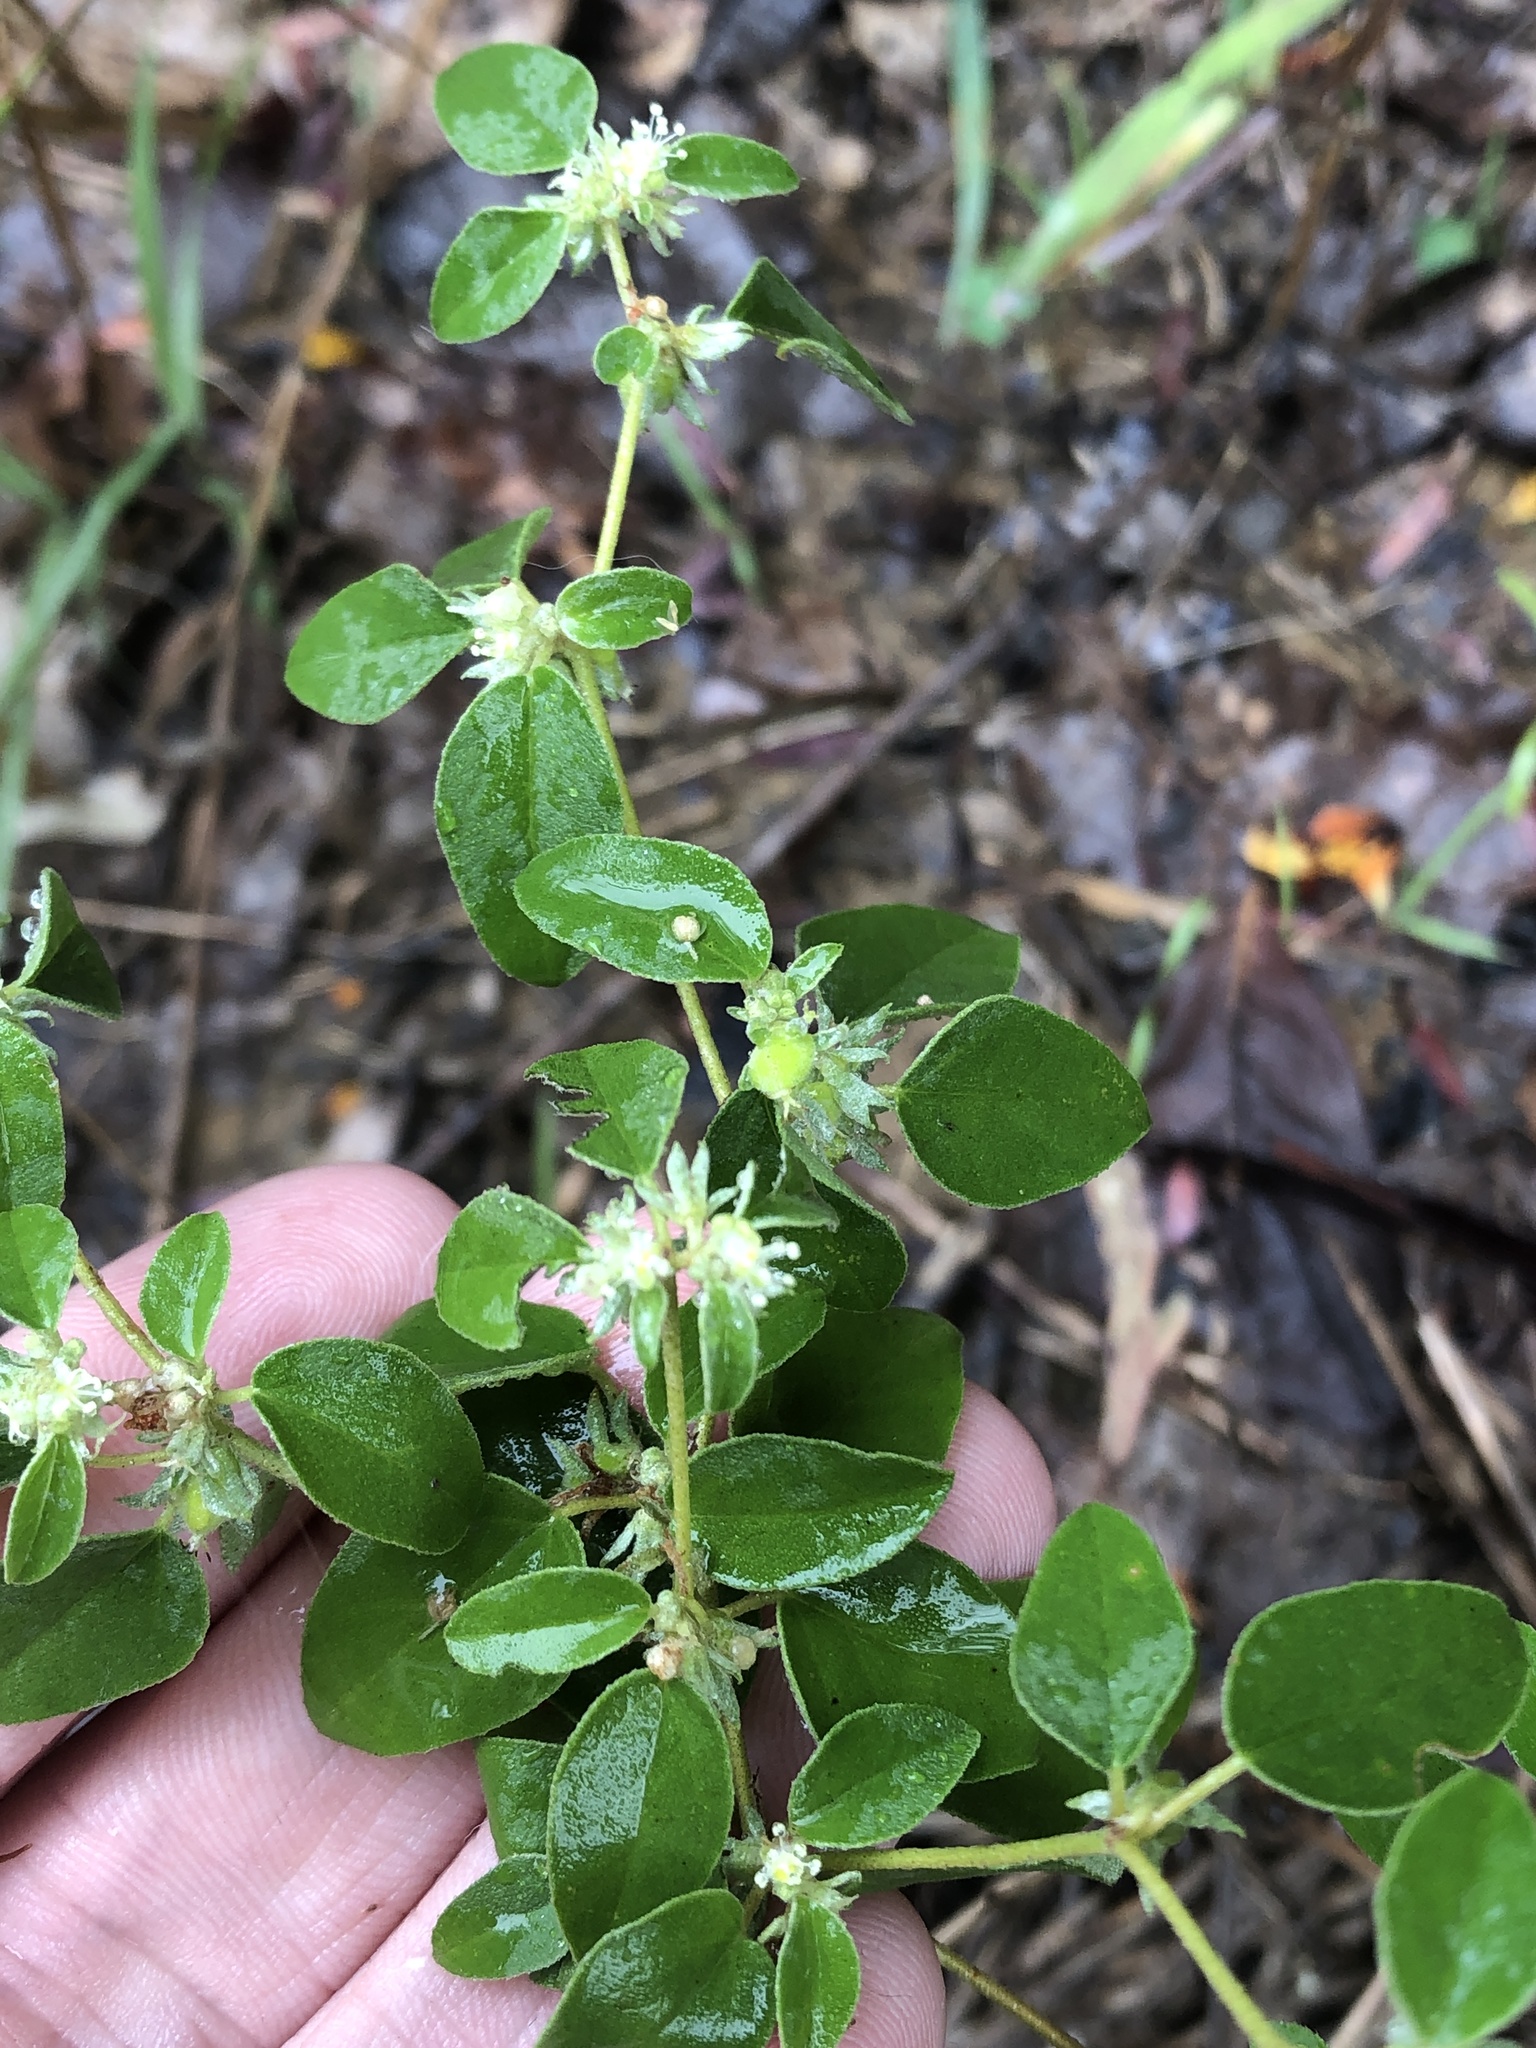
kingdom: Plantae
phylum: Tracheophyta
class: Magnoliopsida
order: Malpighiales
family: Euphorbiaceae
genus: Croton
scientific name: Croton monanthogynus
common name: One-seed croton
